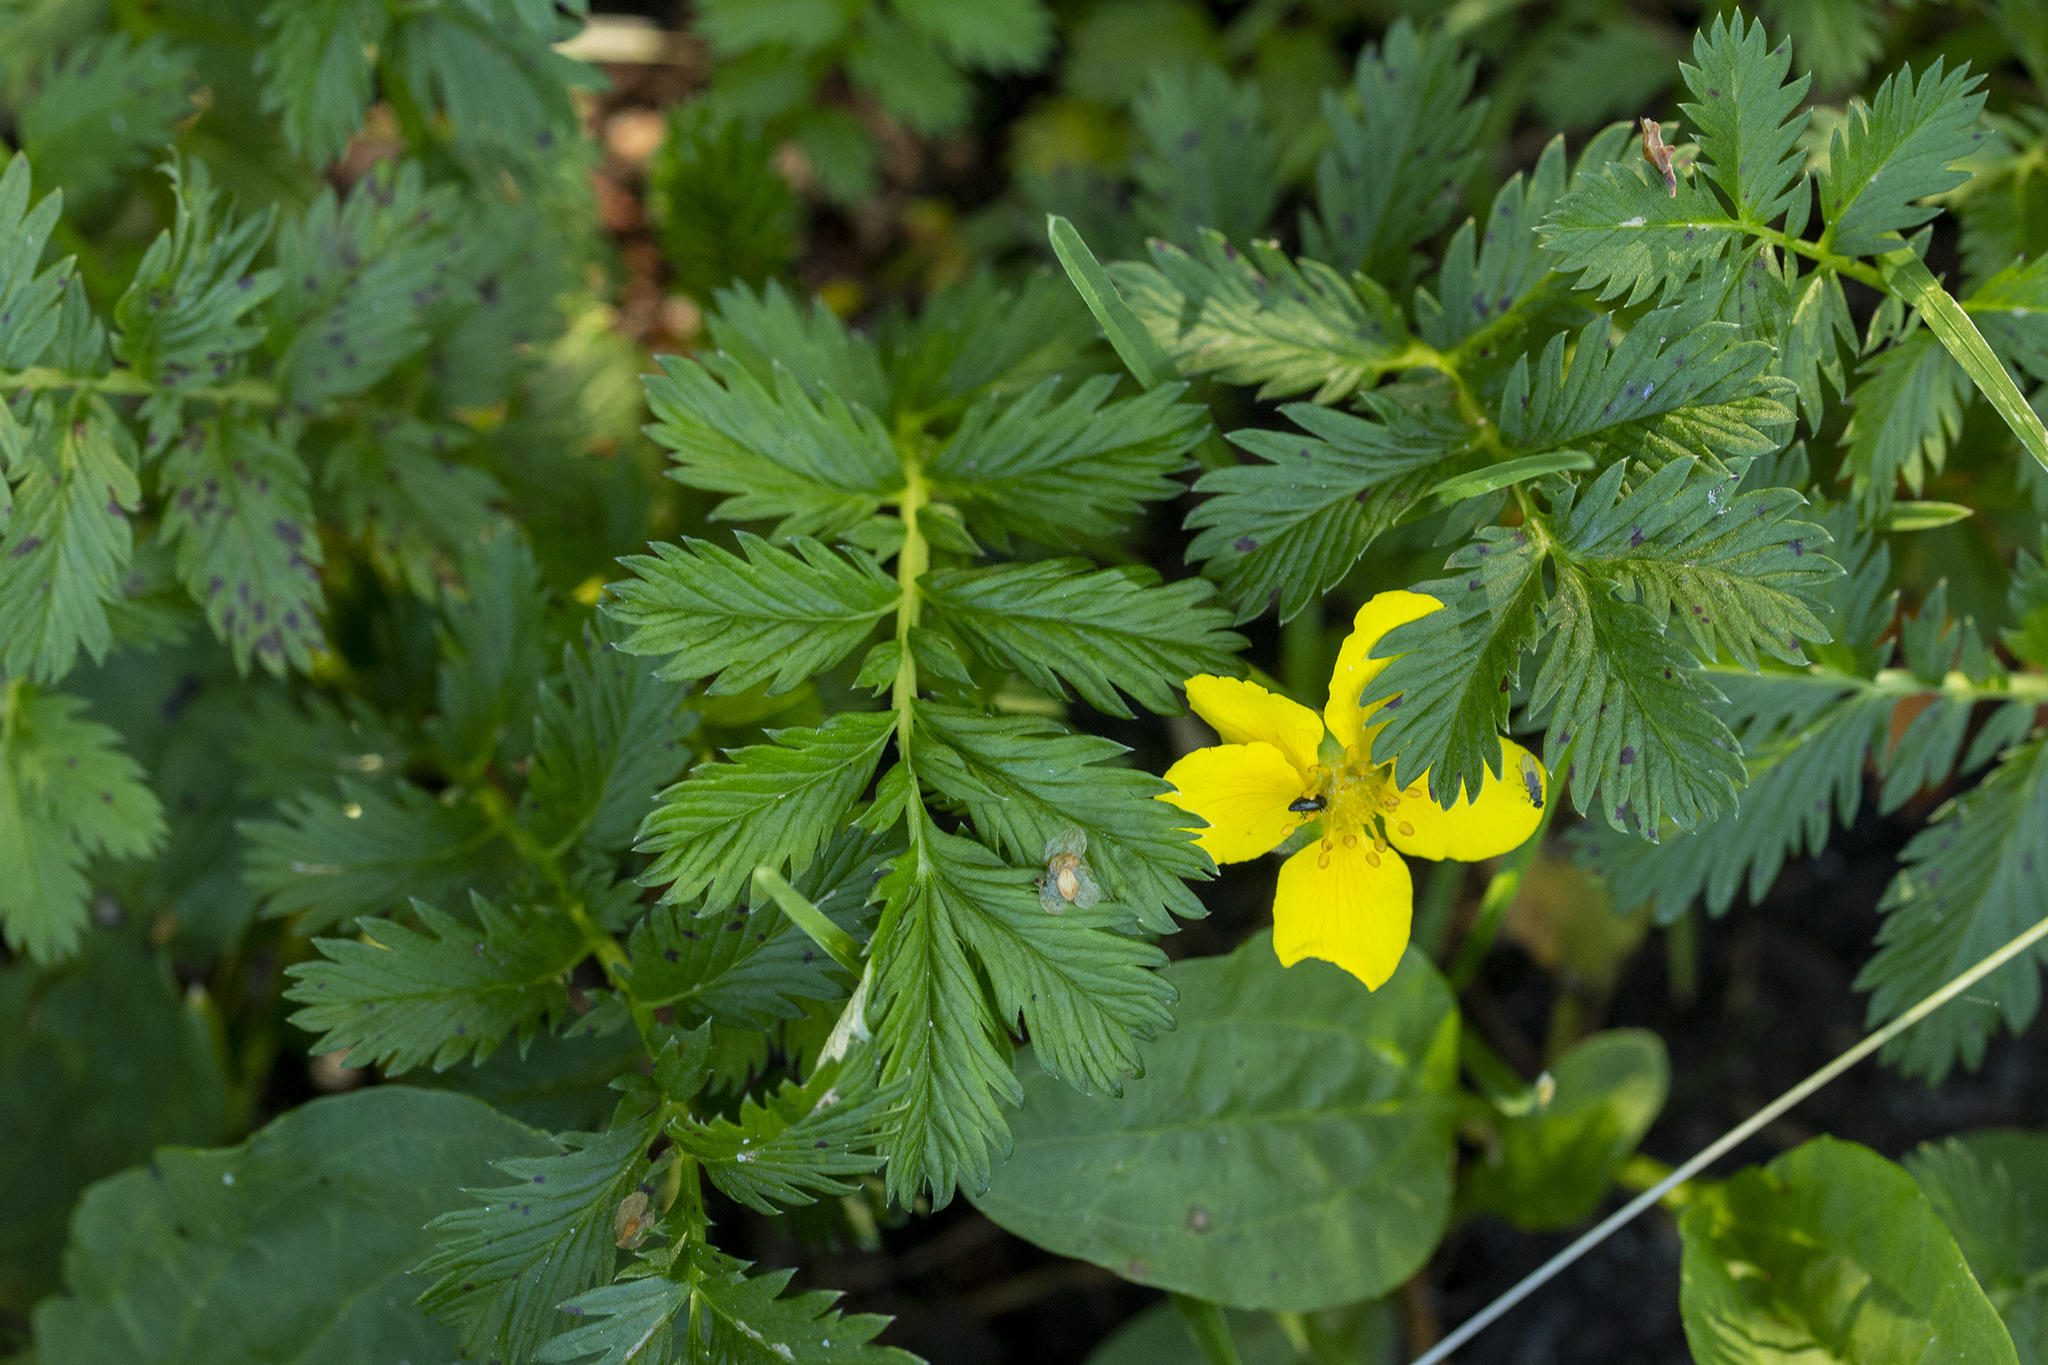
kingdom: Plantae
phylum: Tracheophyta
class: Magnoliopsida
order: Rosales
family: Rosaceae
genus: Argentina
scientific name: Argentina anserina
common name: Common silverweed
